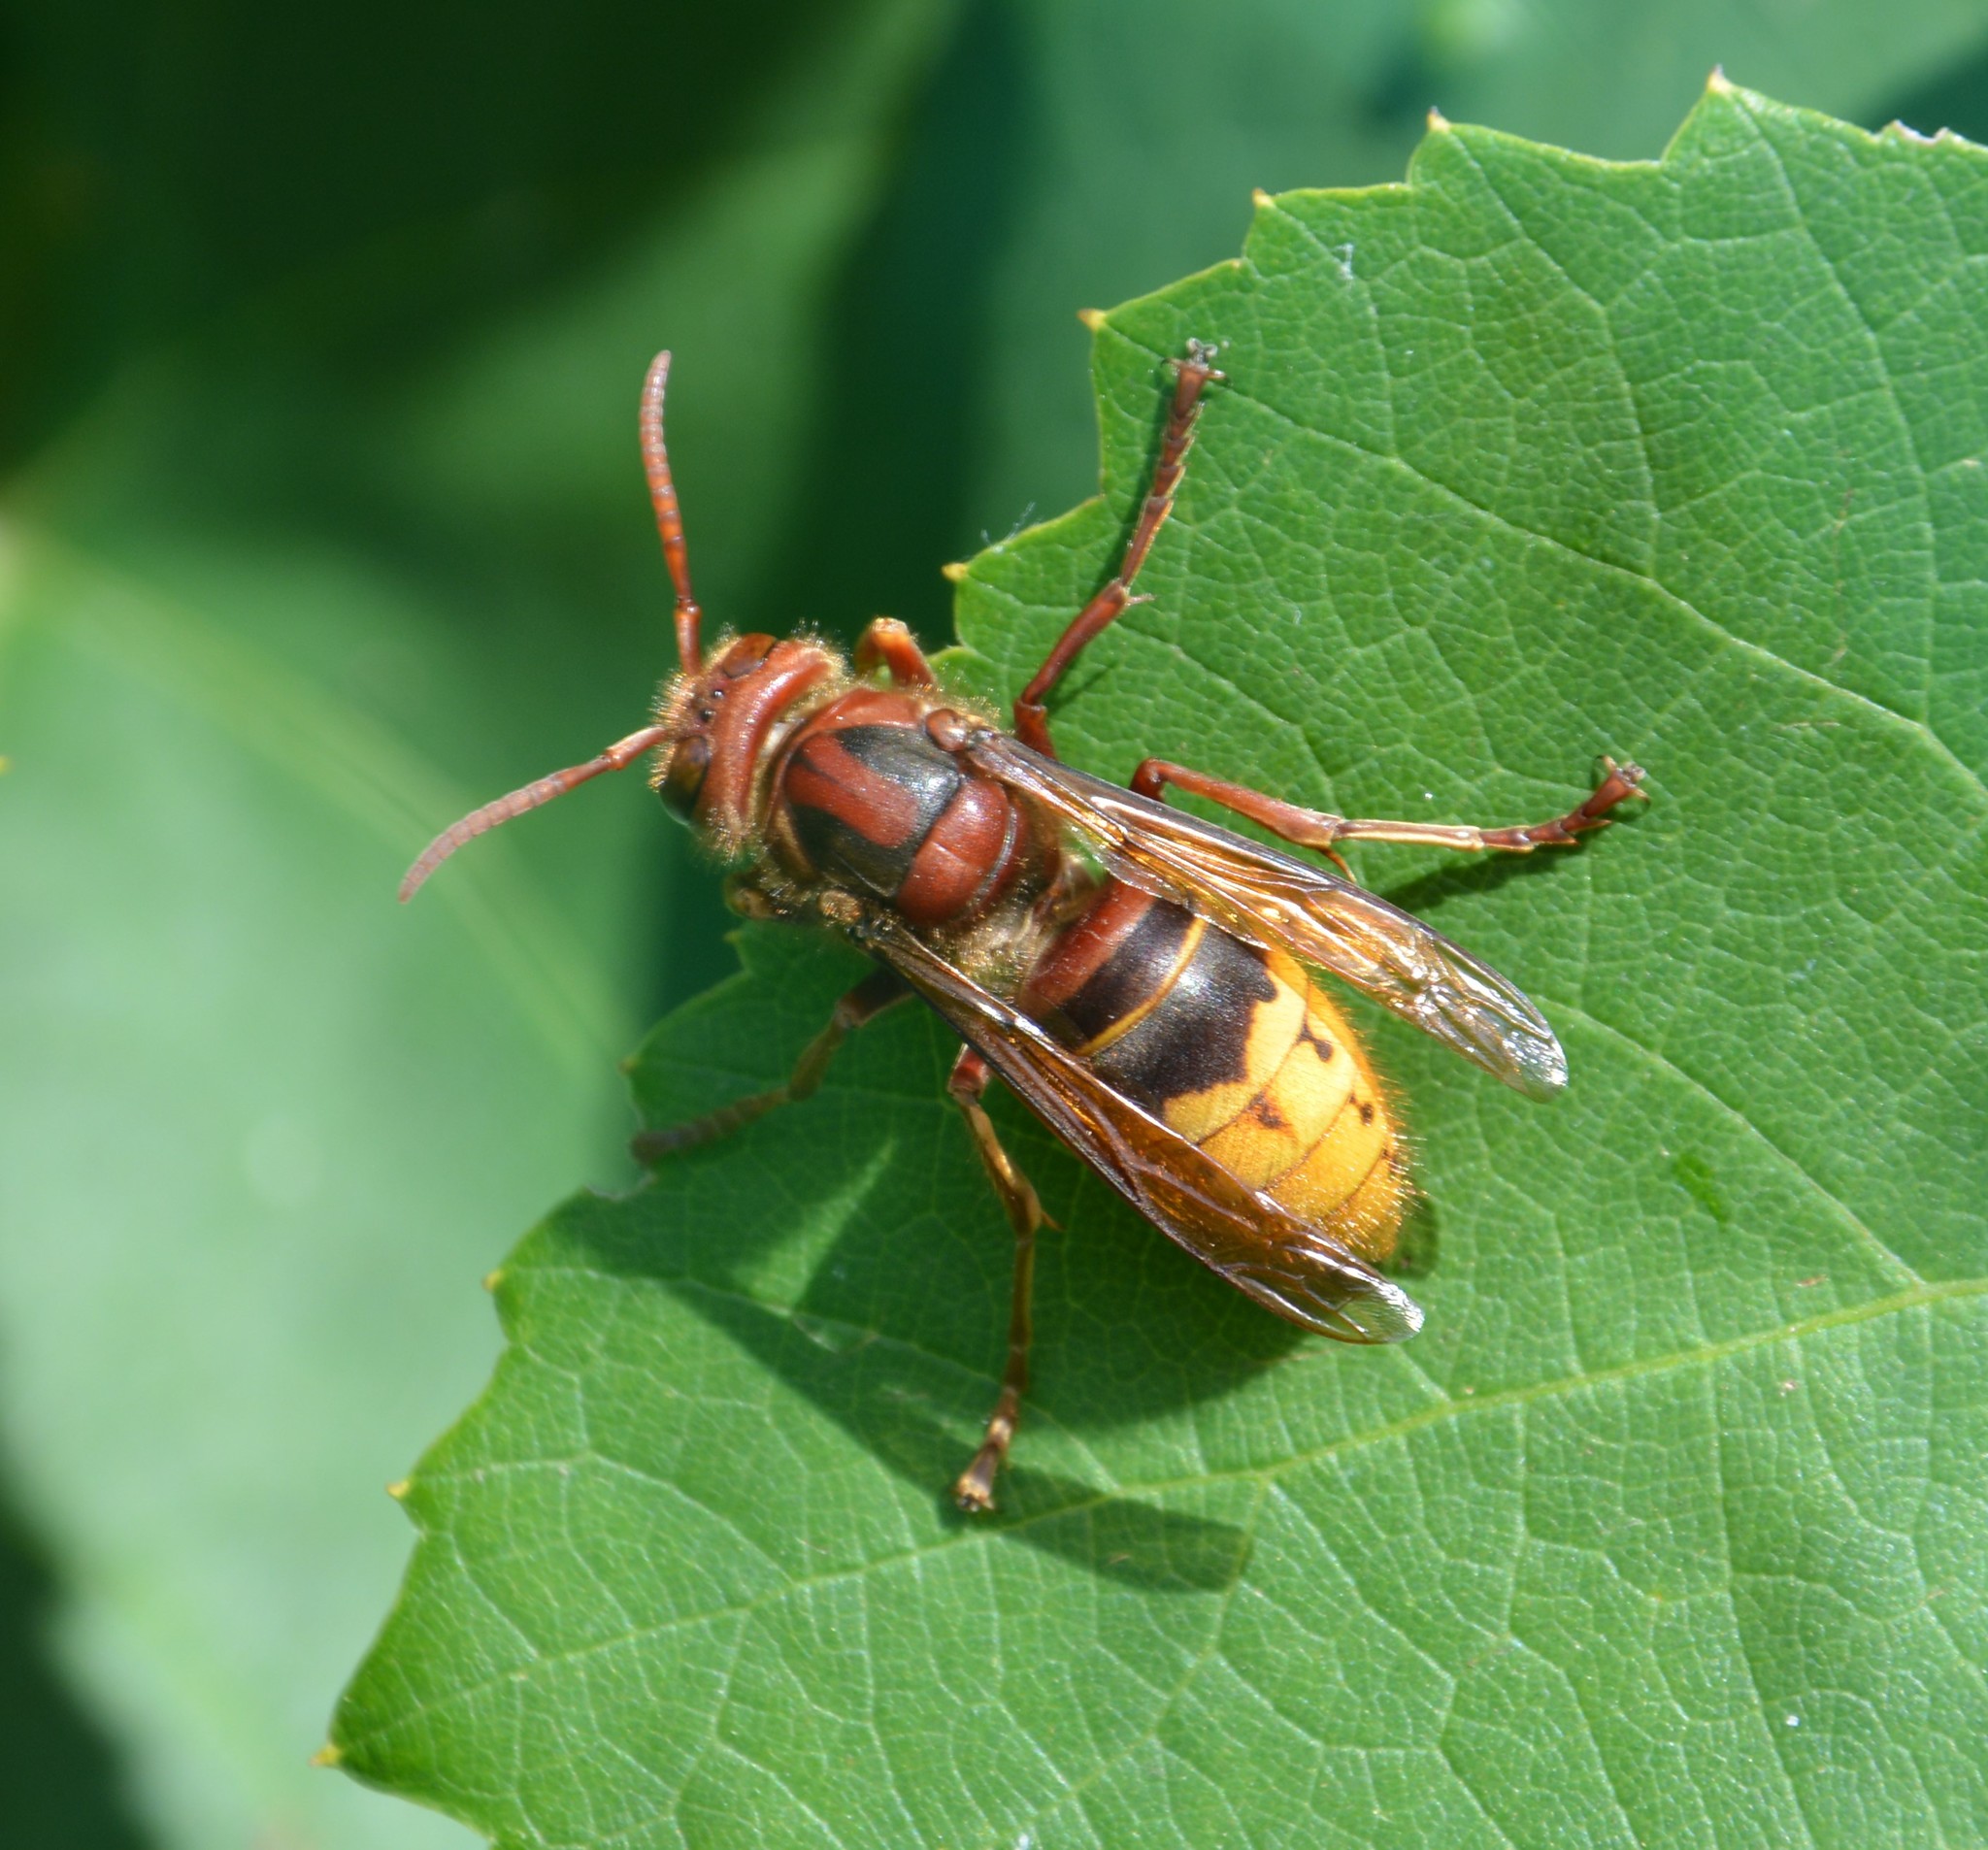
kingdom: Animalia
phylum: Arthropoda
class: Insecta
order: Hymenoptera
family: Vespidae
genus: Vespa
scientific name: Vespa crabro
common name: Hornet
